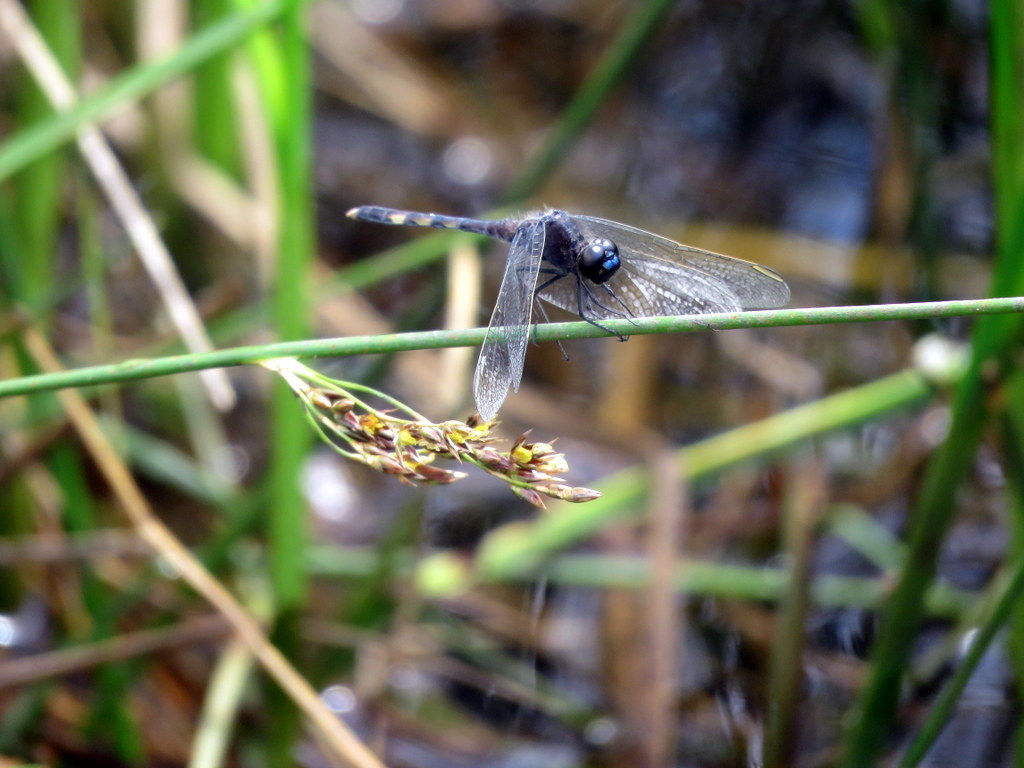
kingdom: Animalia
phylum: Arthropoda
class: Insecta
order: Odonata
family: Libellulidae
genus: Erythrodiplax
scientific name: Erythrodiplax nigricans
